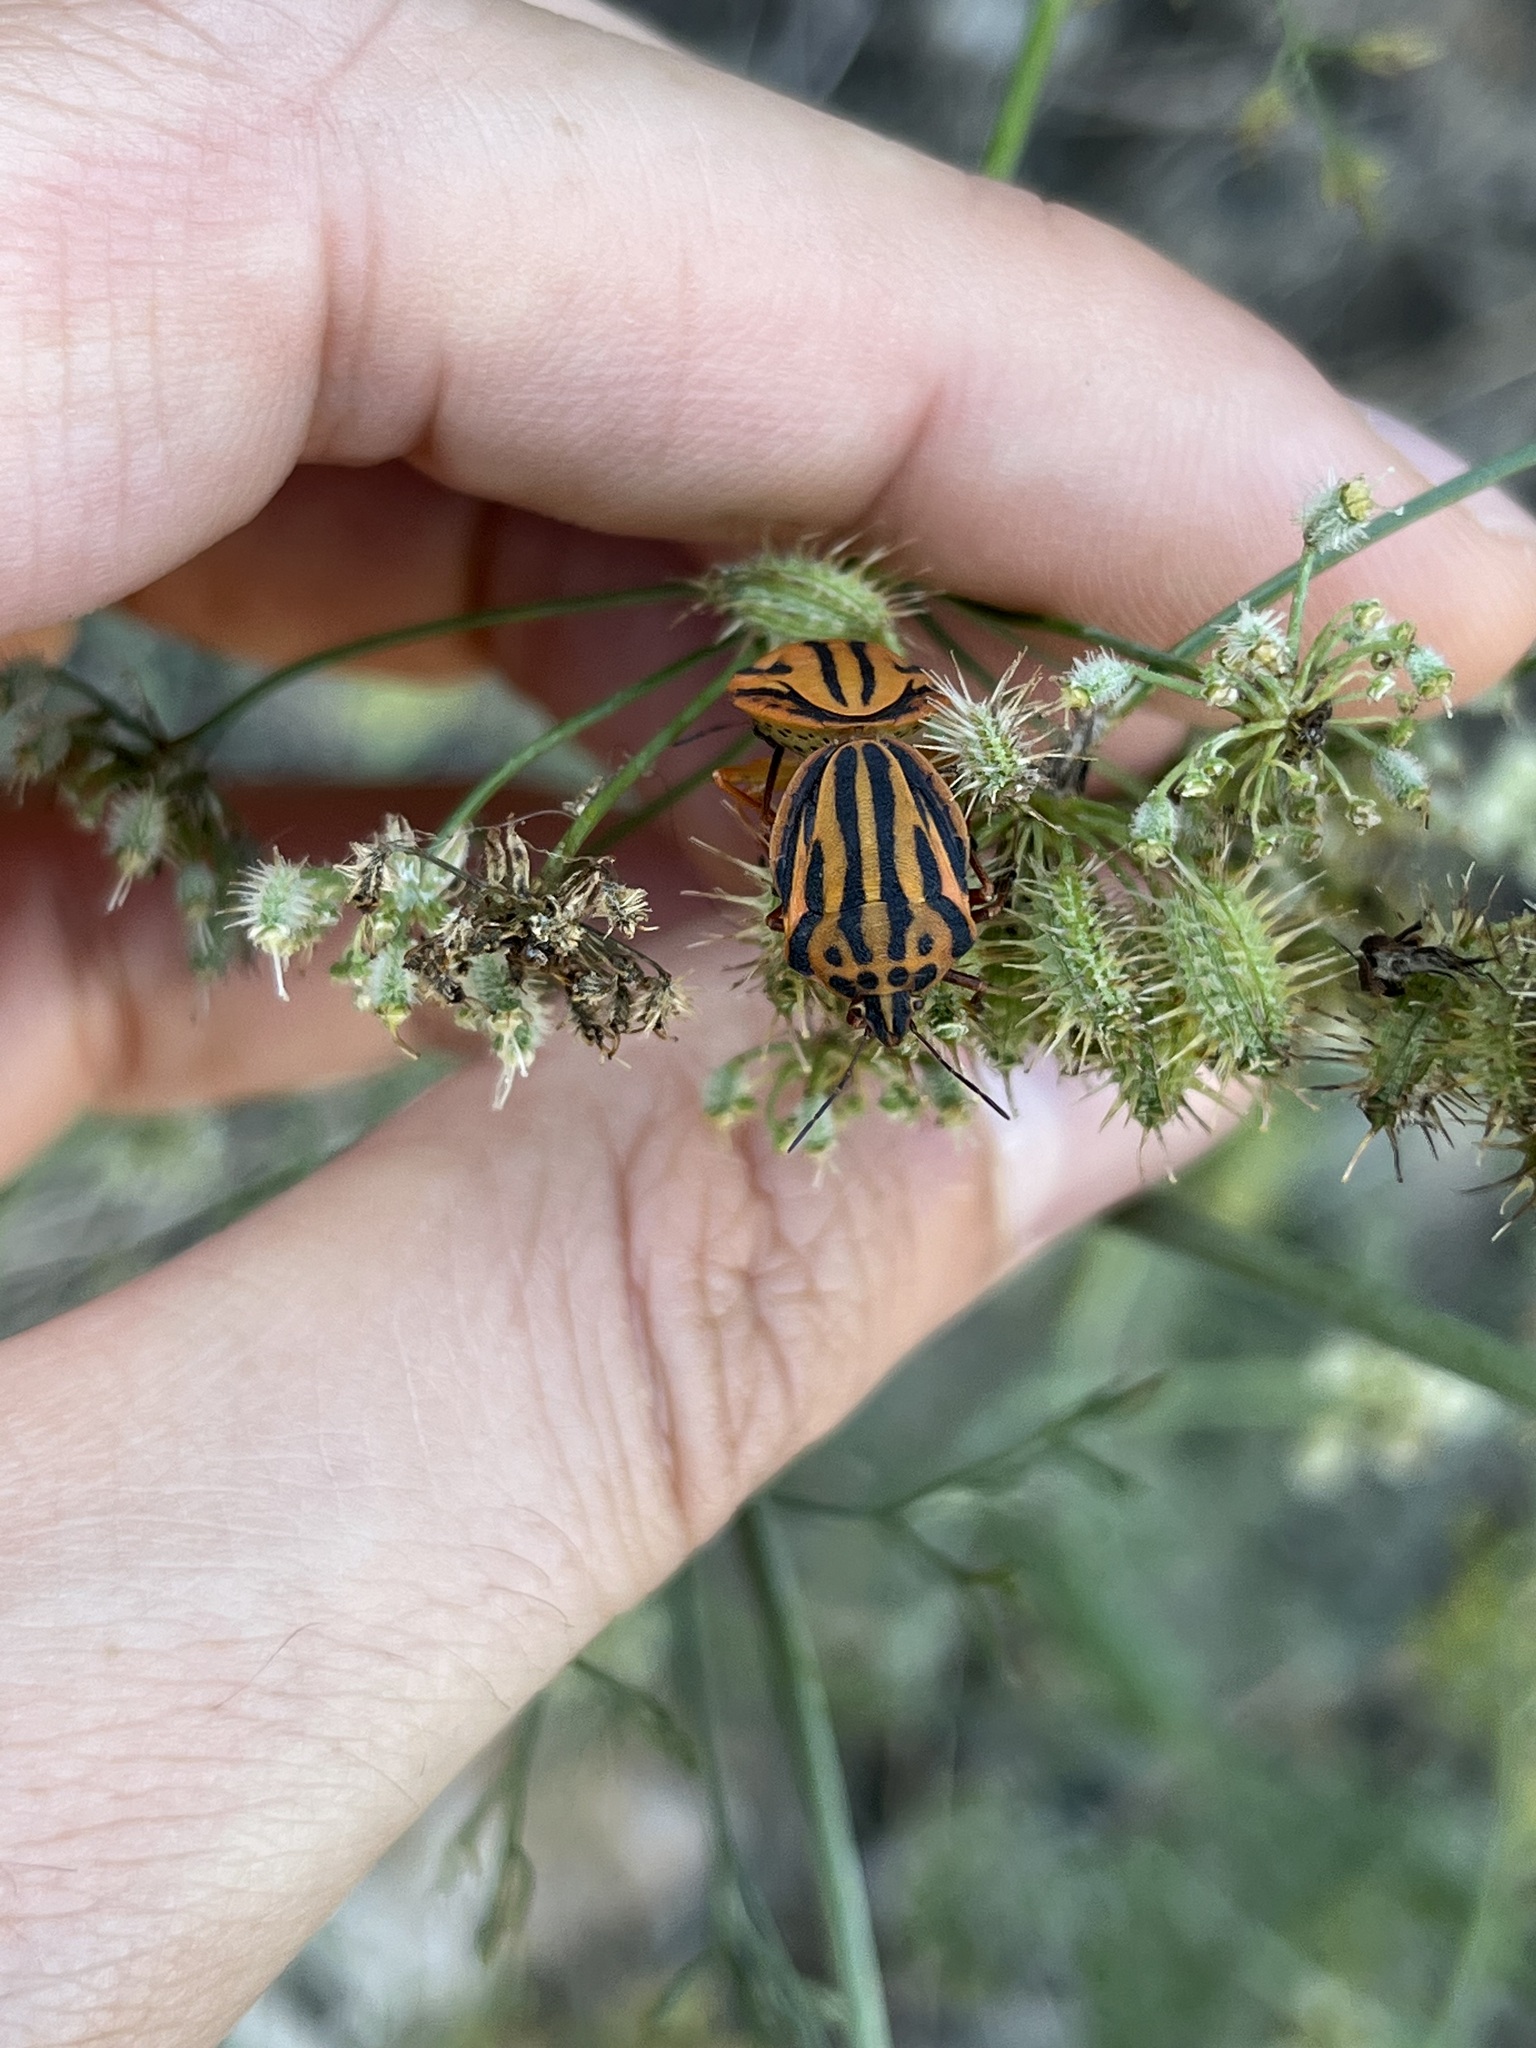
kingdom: Animalia
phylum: Arthropoda
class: Insecta
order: Hemiptera
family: Pentatomidae
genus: Graphosoma
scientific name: Graphosoma semipunctatum
